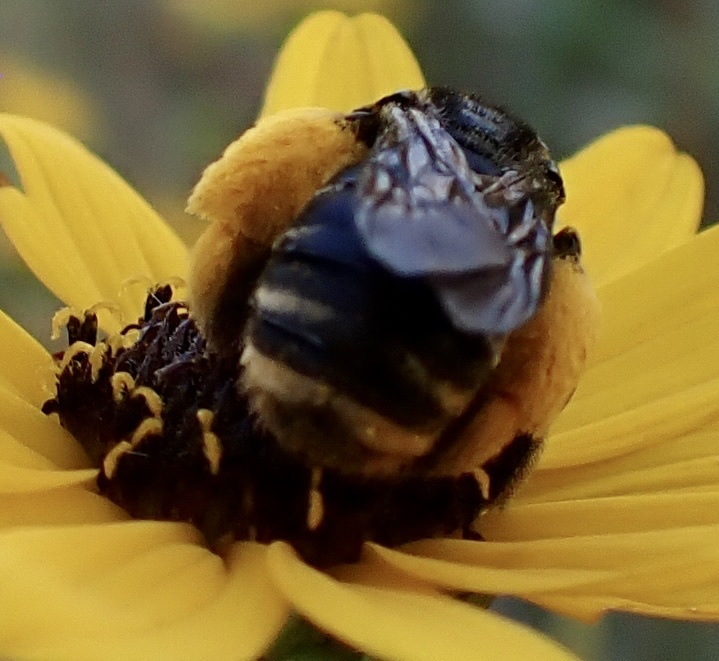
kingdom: Animalia
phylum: Arthropoda
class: Insecta
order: Hymenoptera
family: Apidae
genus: Svastra
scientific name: Svastra obliqua
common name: Oblique longhorn
